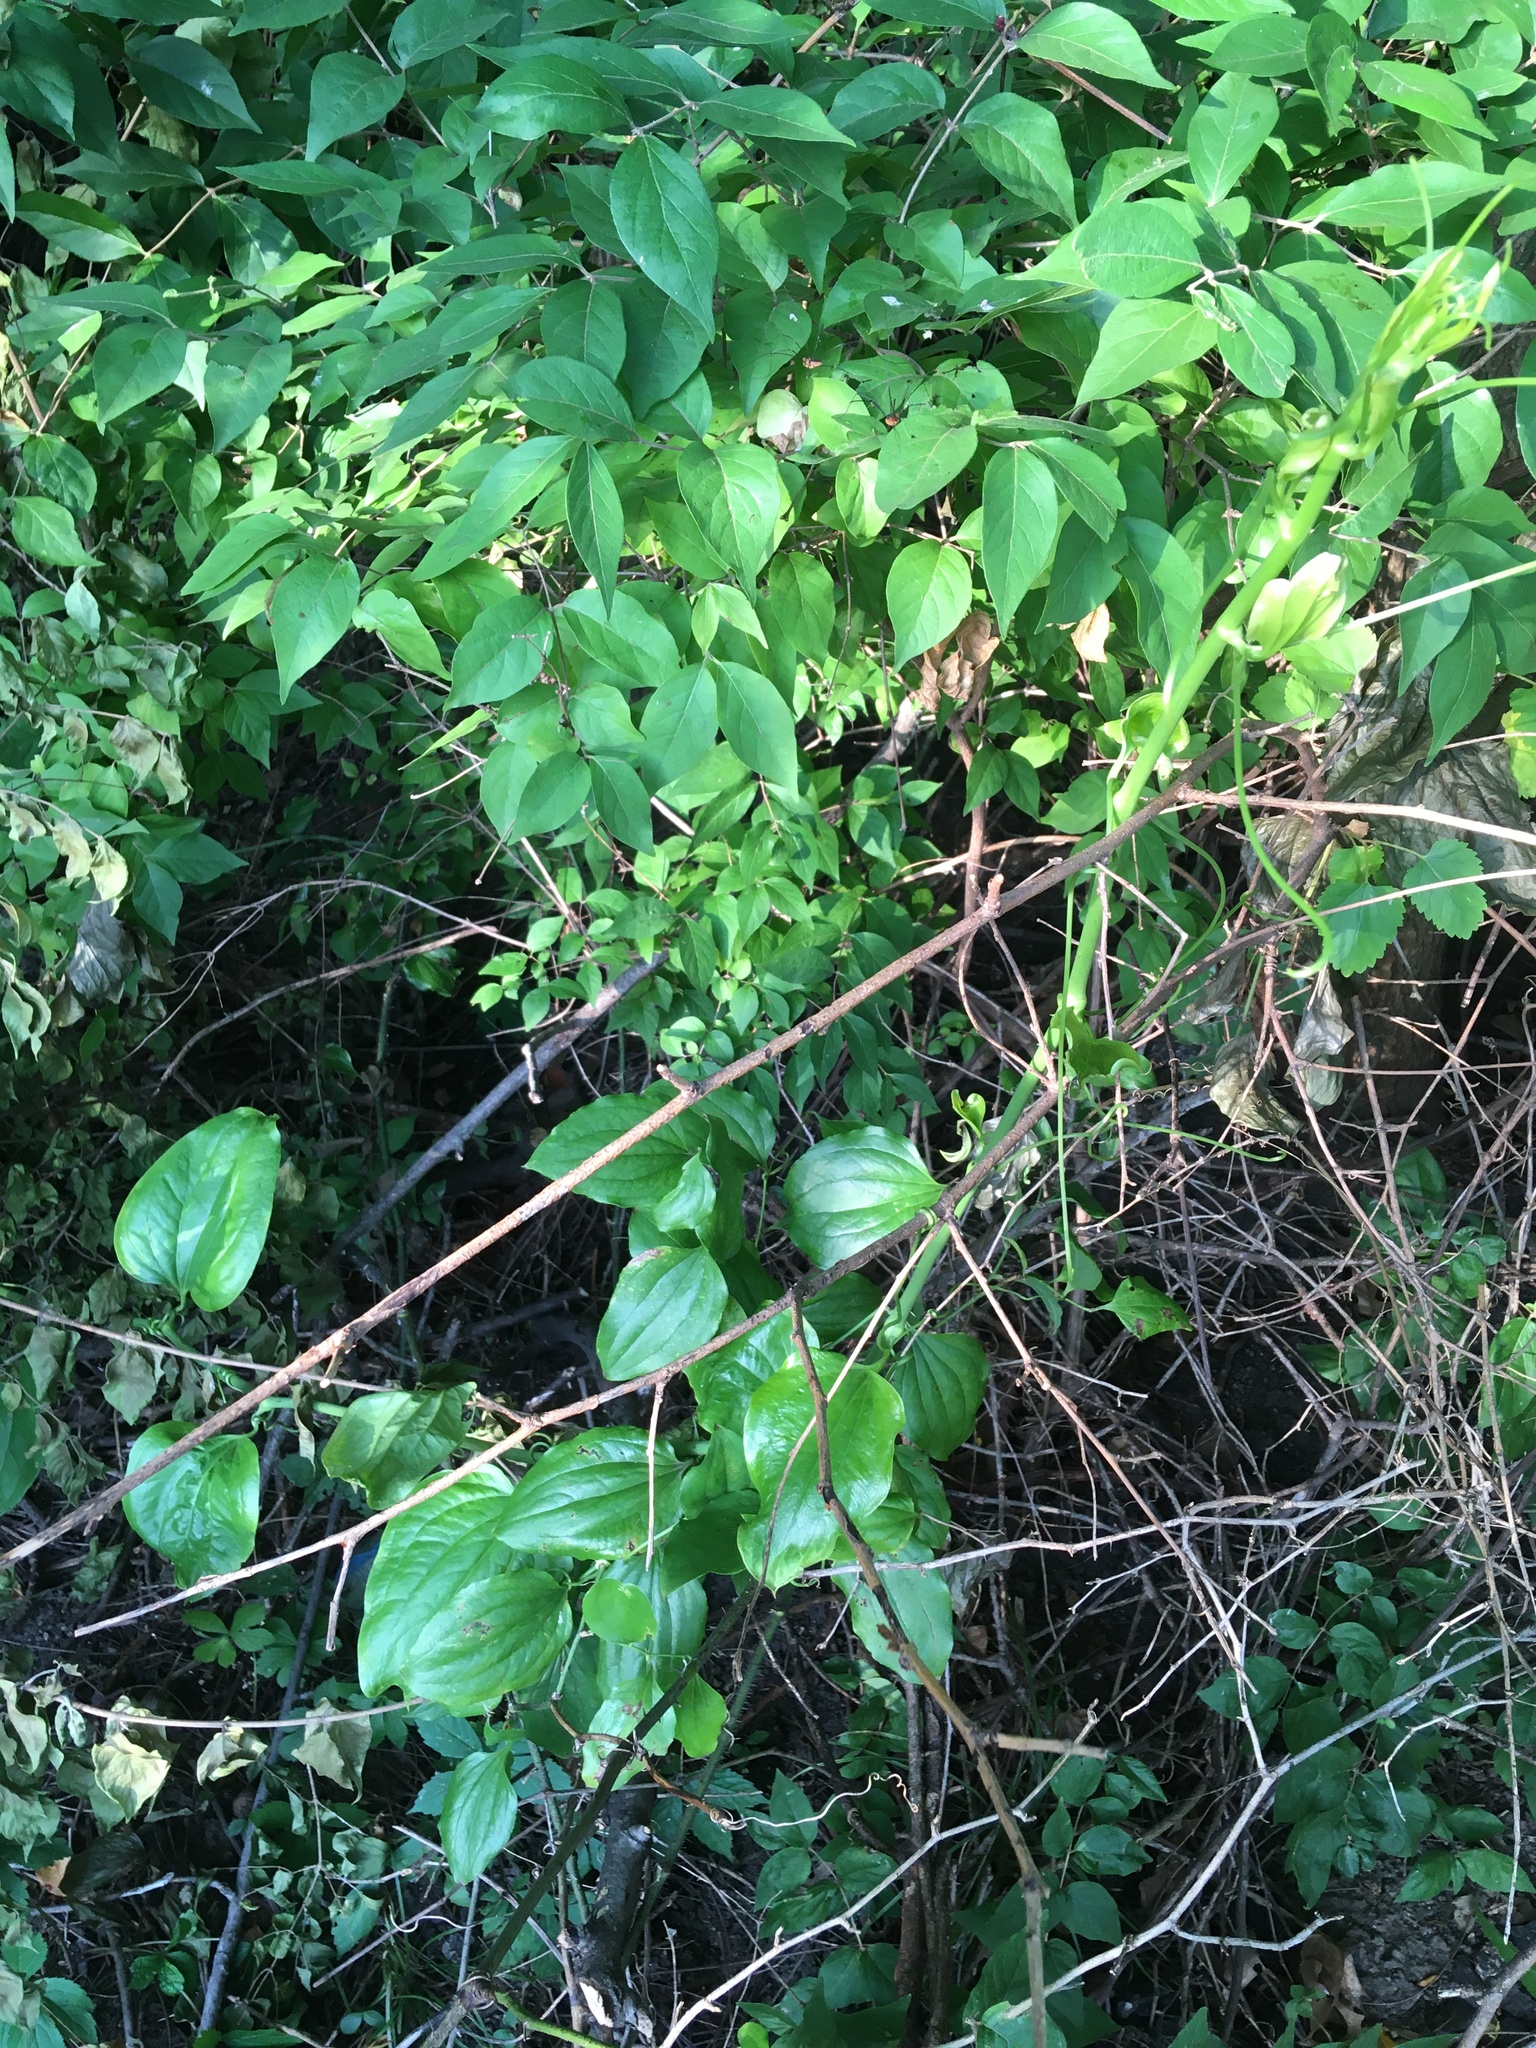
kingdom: Plantae
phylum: Tracheophyta
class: Liliopsida
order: Liliales
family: Smilacaceae
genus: Smilax
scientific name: Smilax tamnoides
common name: Hellfetter
